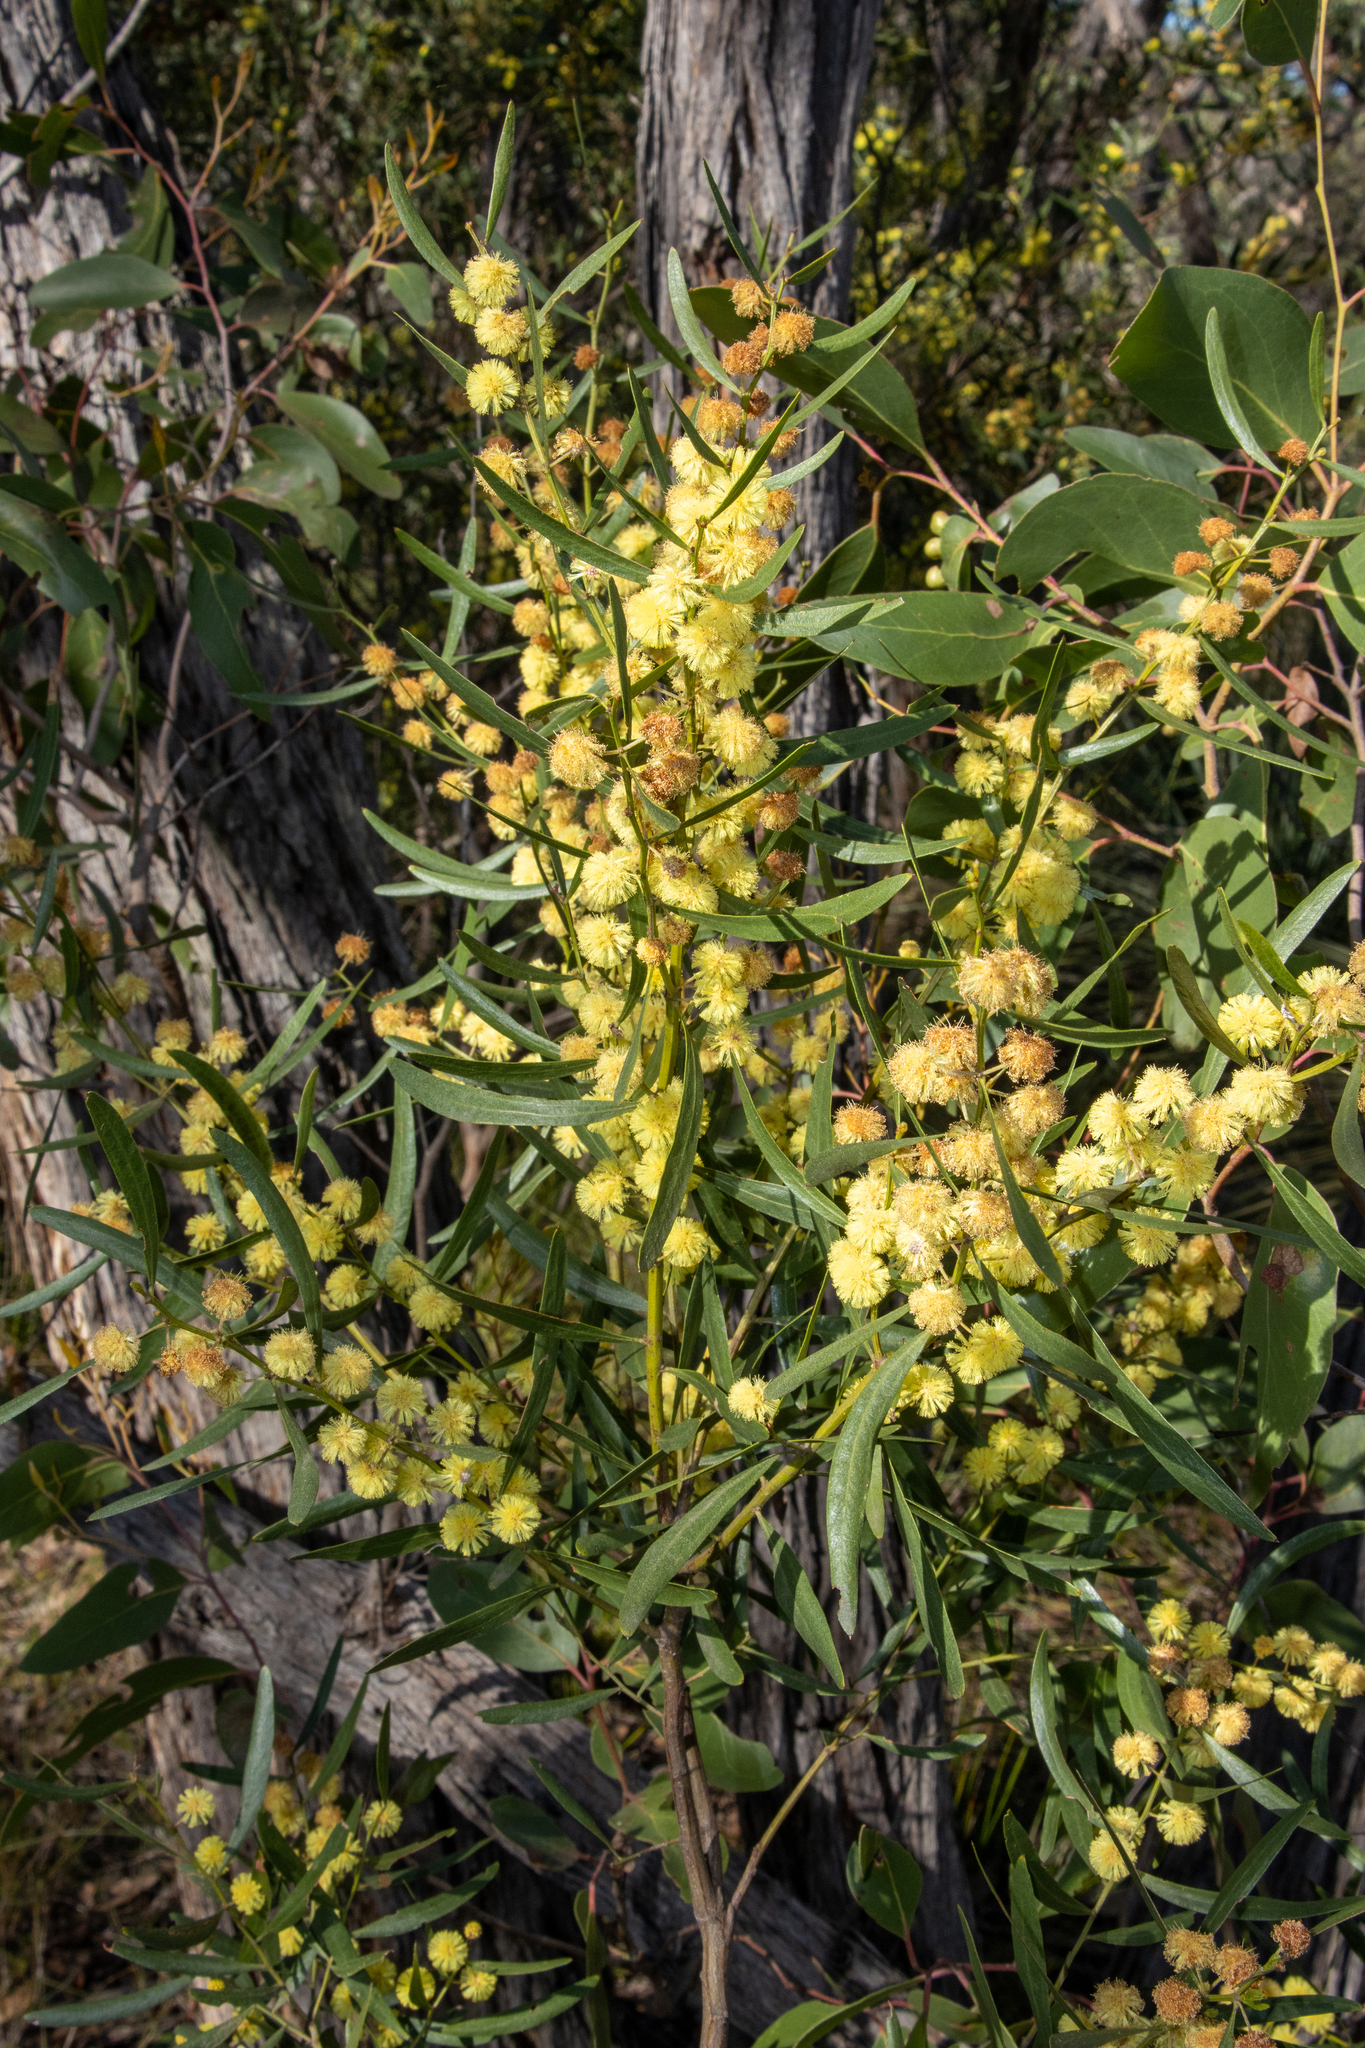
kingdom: Plantae
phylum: Tracheophyta
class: Magnoliopsida
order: Fabales
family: Fabaceae
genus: Acacia
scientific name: Acacia verniciflua
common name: Varnish wattle
